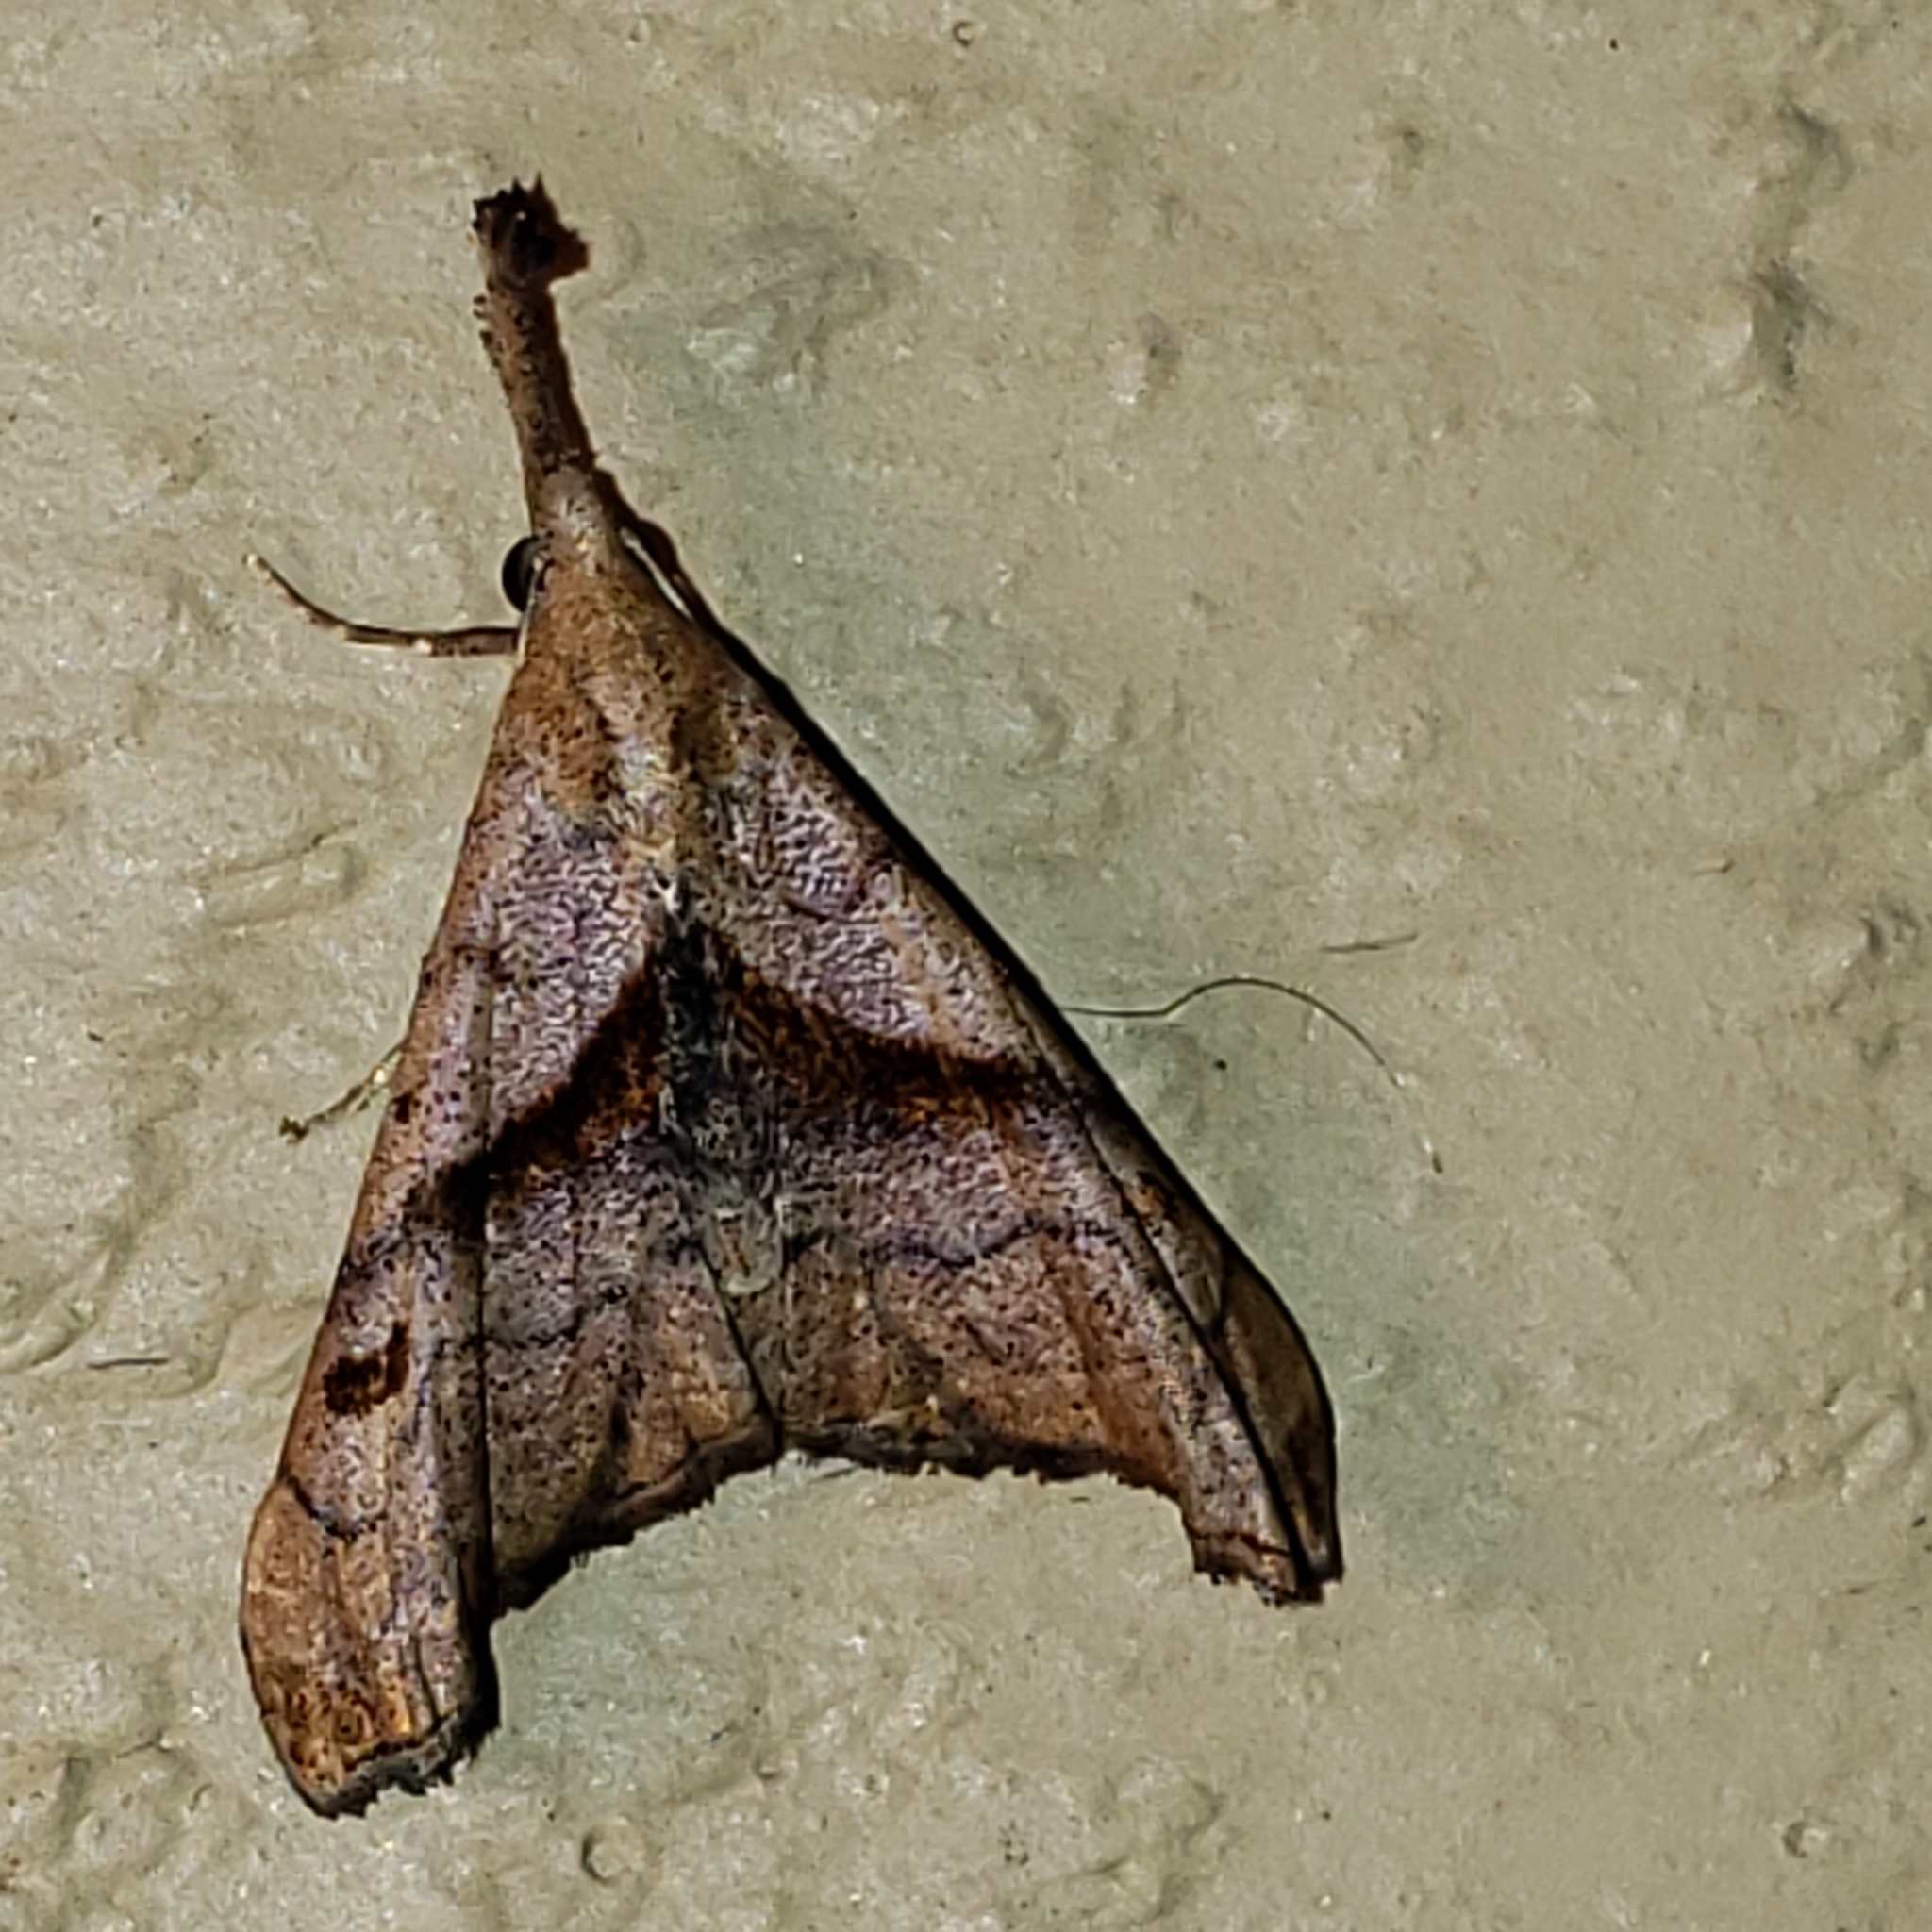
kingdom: Animalia
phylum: Arthropoda
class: Insecta
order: Lepidoptera
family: Erebidae
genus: Palthis
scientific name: Palthis angulalis
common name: Dark-spotted palthis moth
